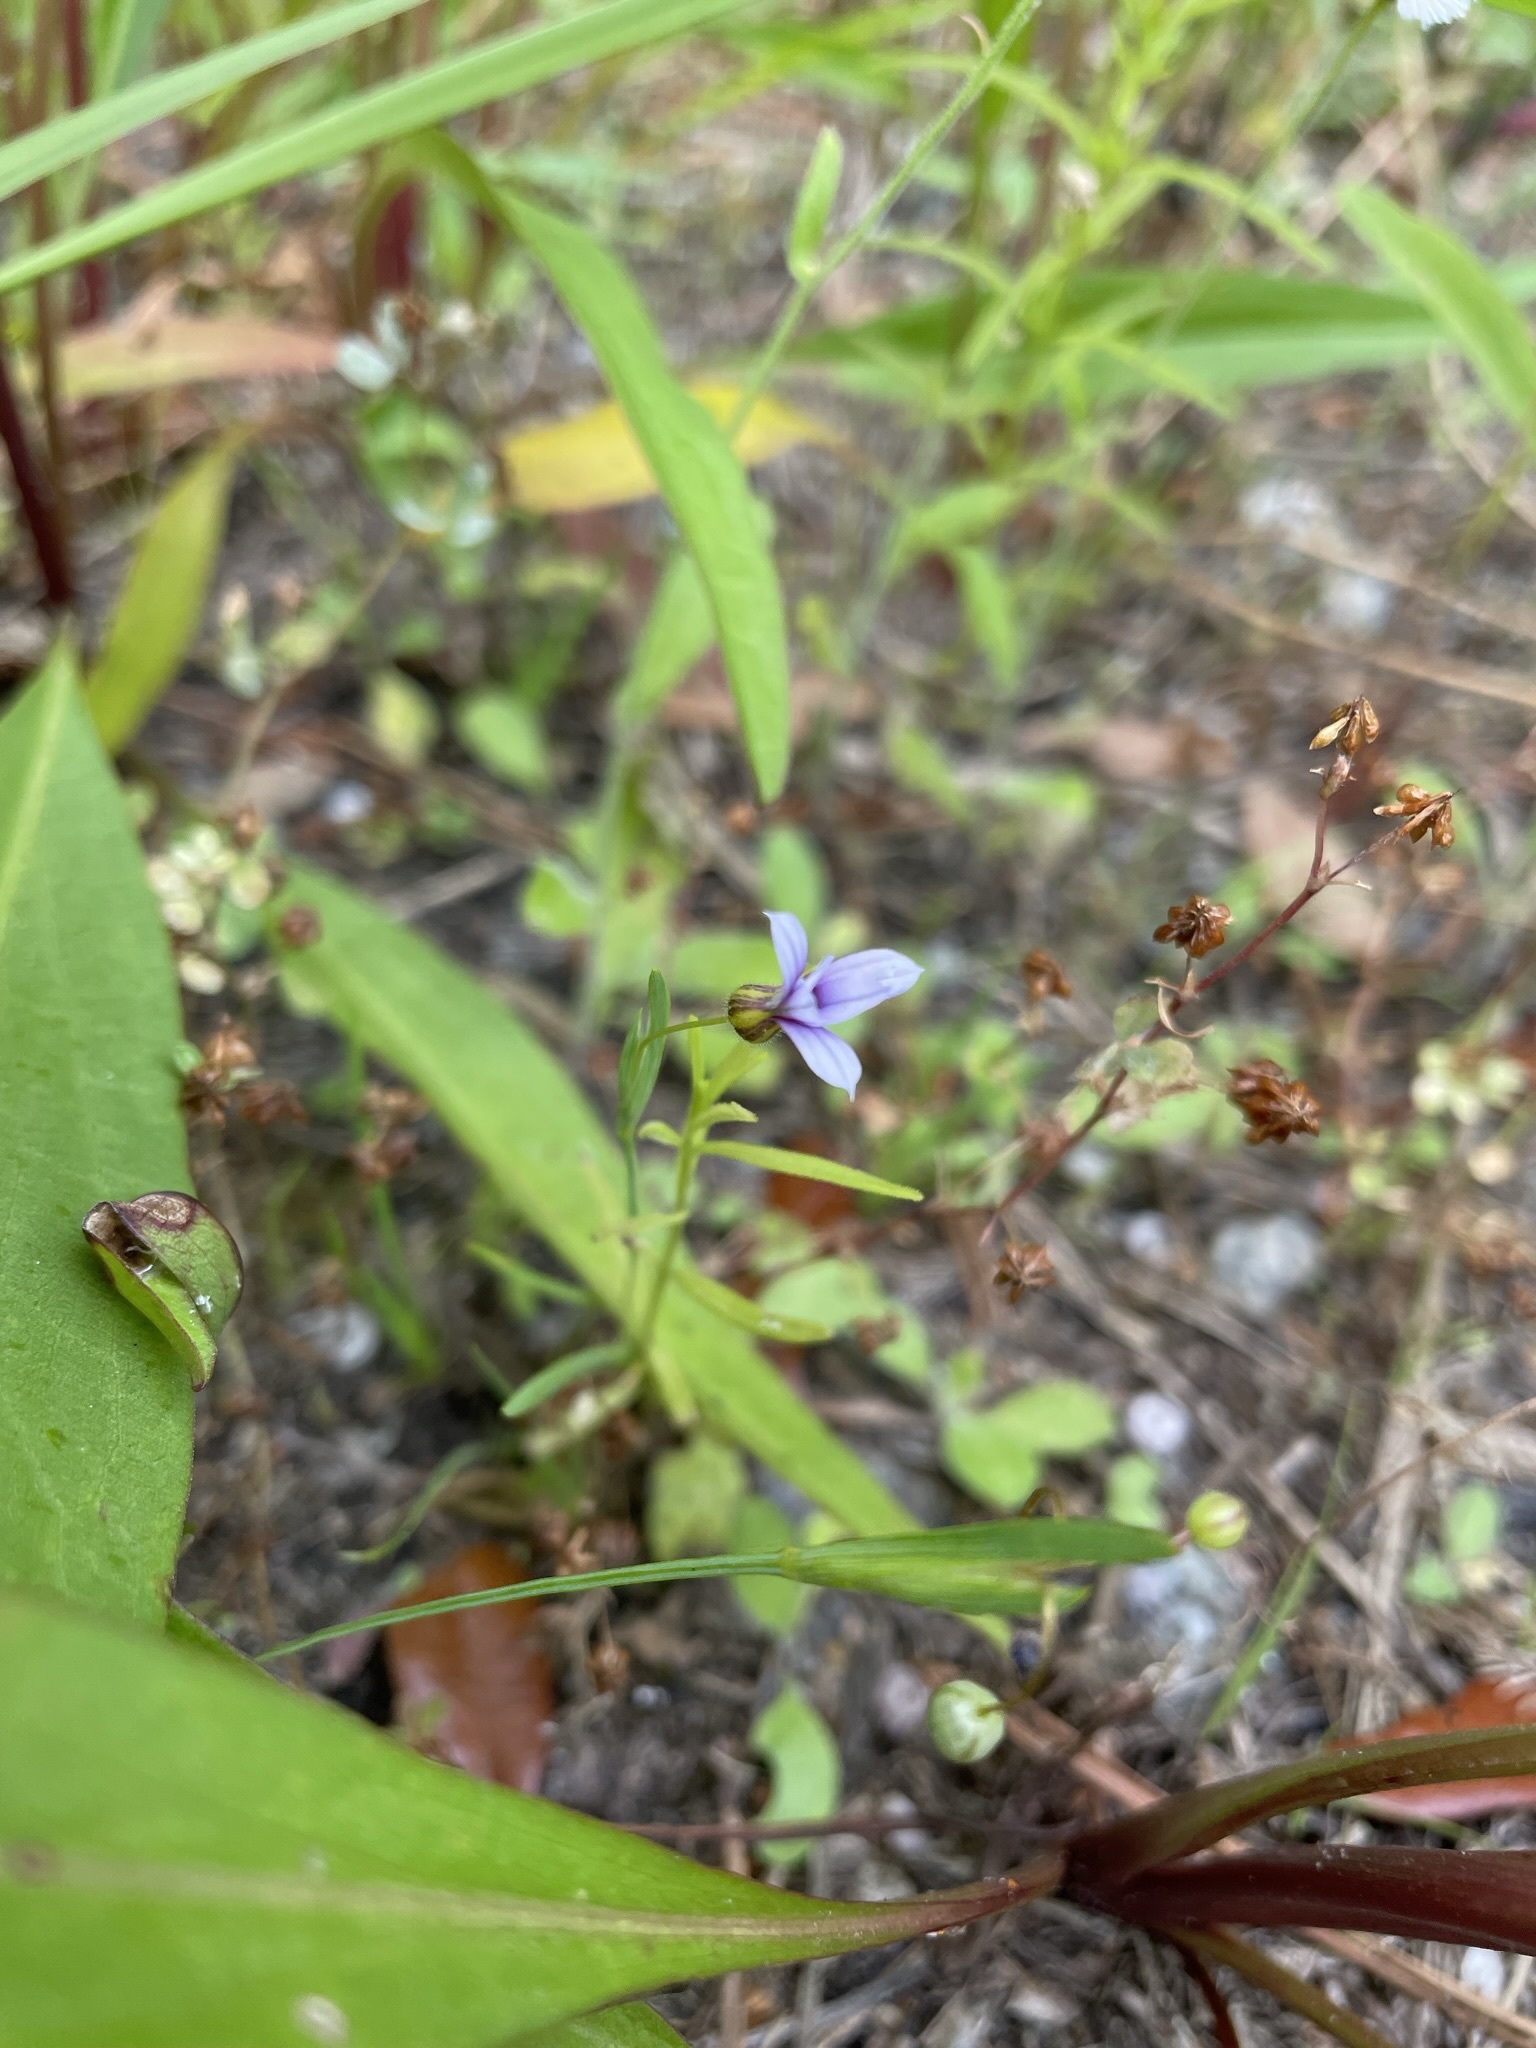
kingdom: Plantae
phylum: Tracheophyta
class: Liliopsida
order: Asparagales
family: Iridaceae
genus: Sisyrinchium
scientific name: Sisyrinchium micranthum
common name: Bermuda pigroot
